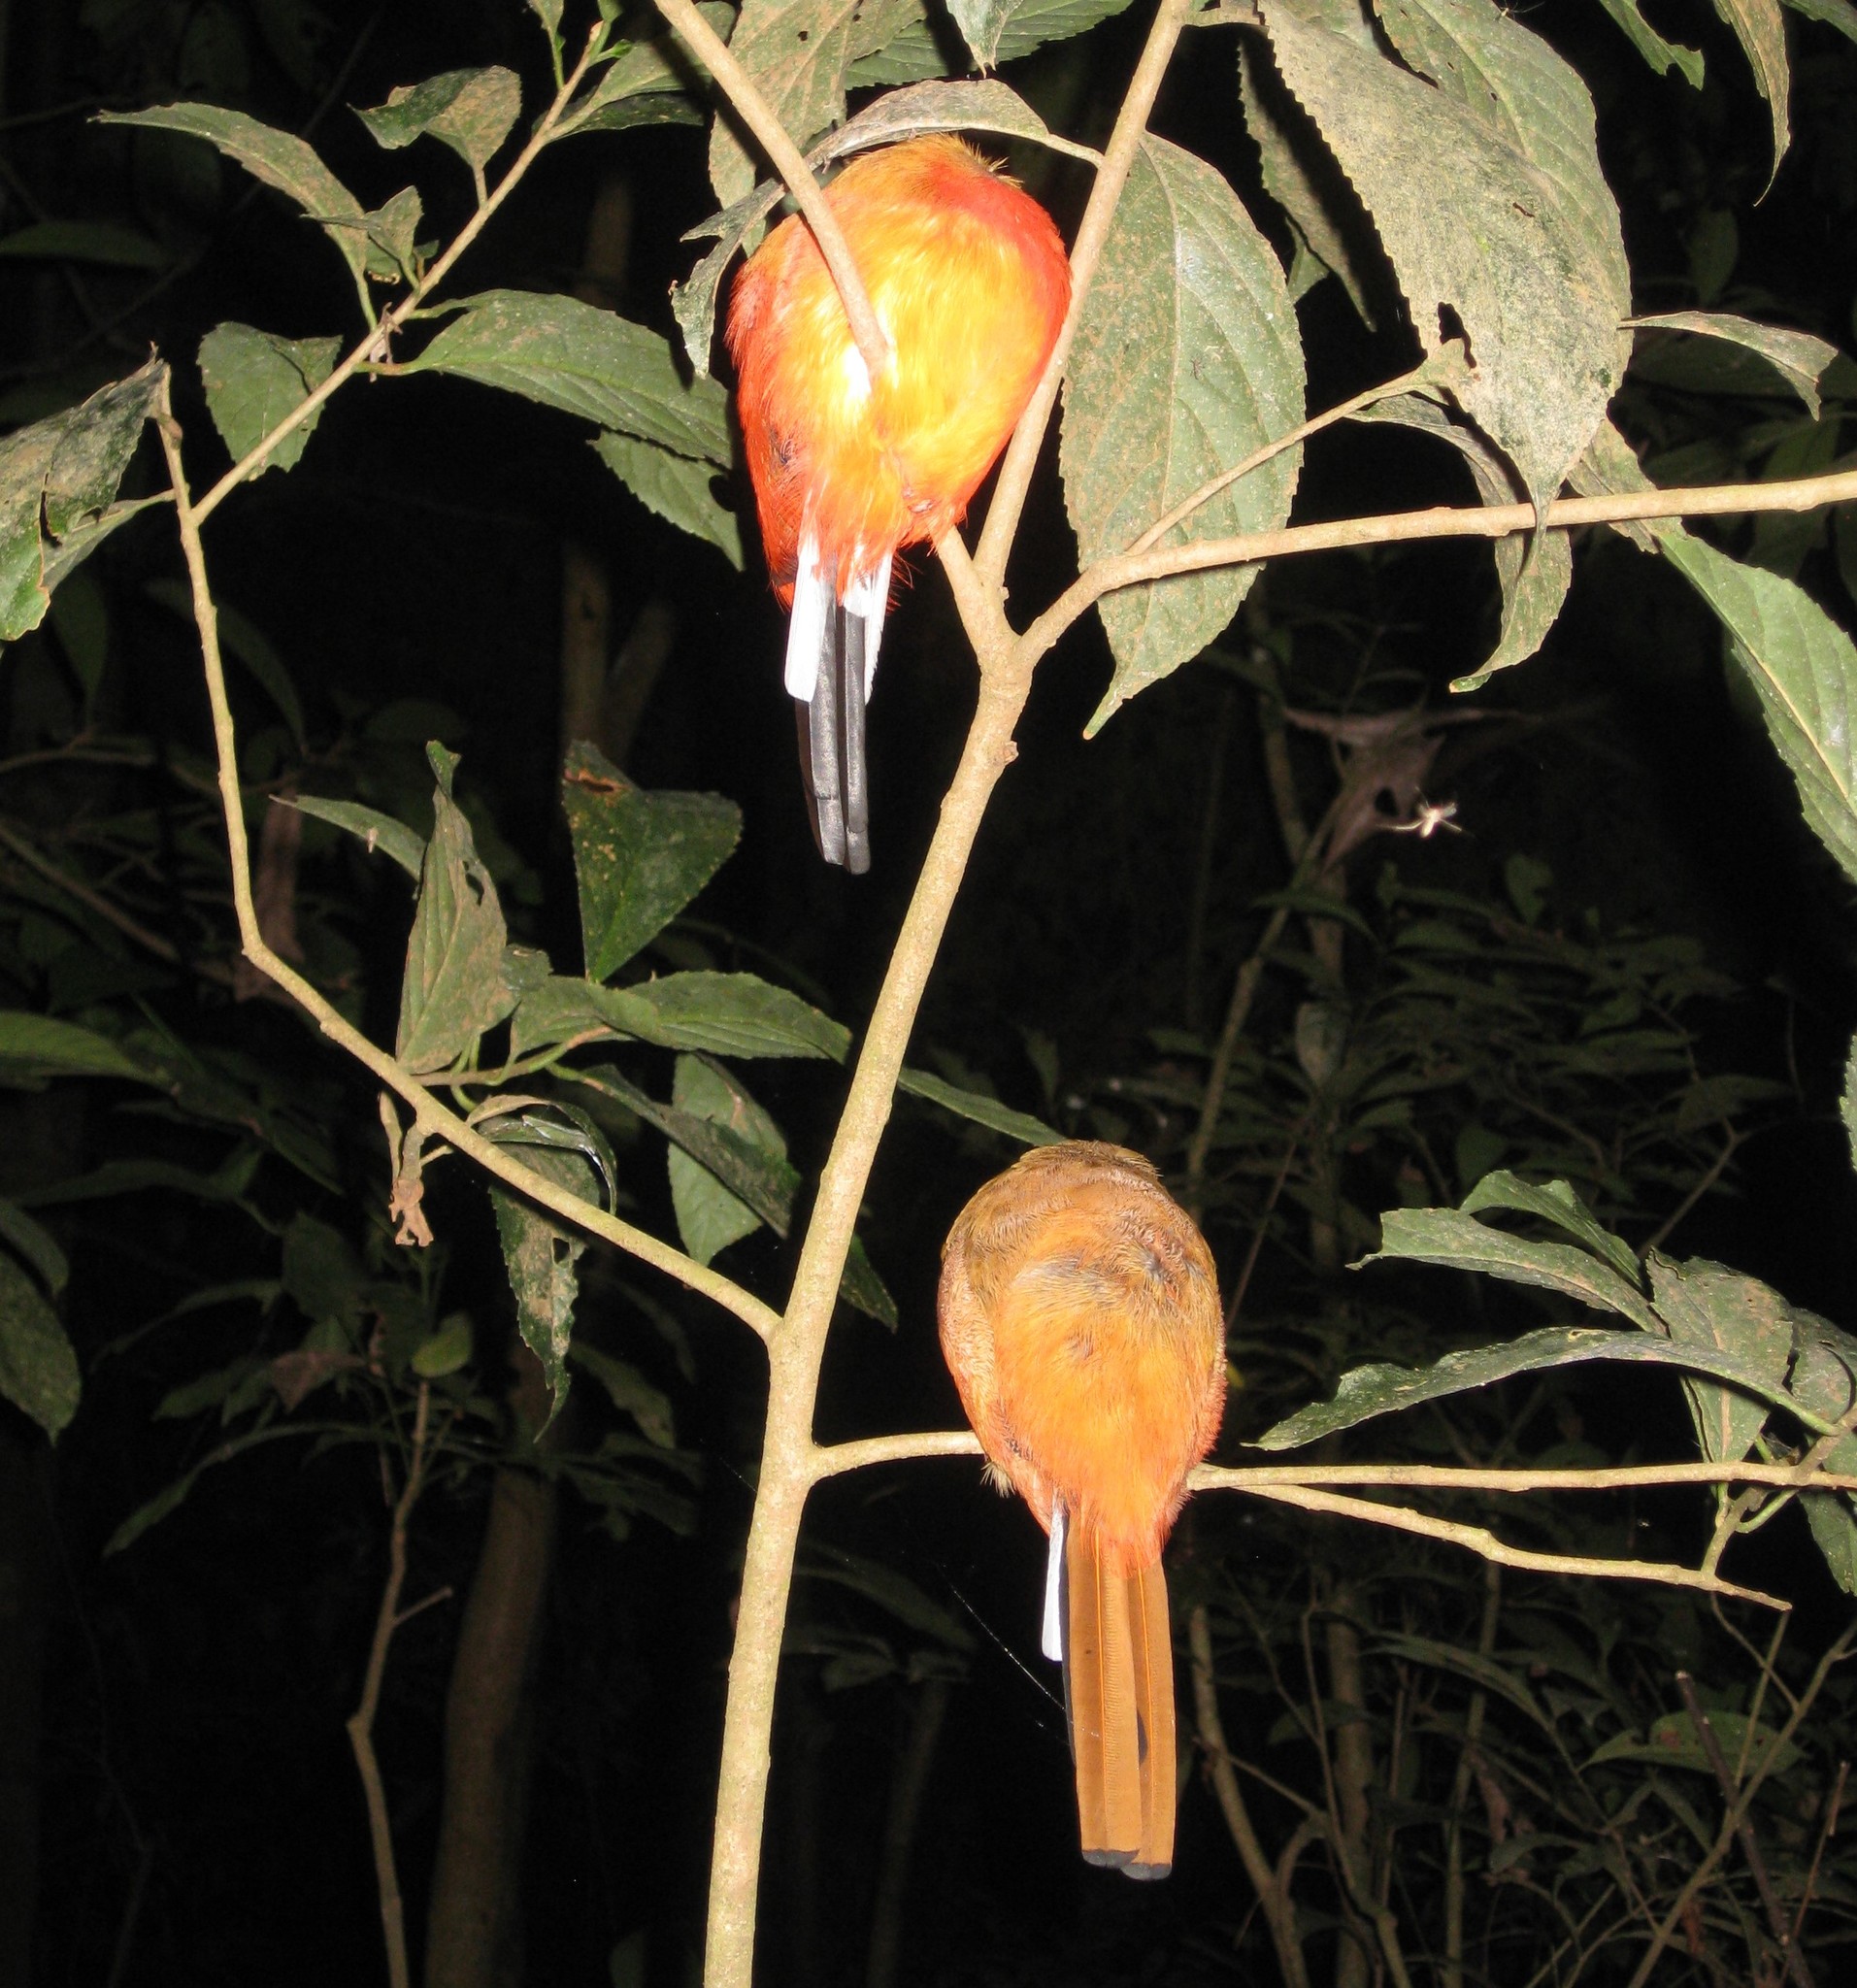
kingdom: Animalia
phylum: Chordata
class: Aves
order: Trogoniformes
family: Trogonidae
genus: Harpactes
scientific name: Harpactes duvaucelii
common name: Scarlet-rumped trogon
